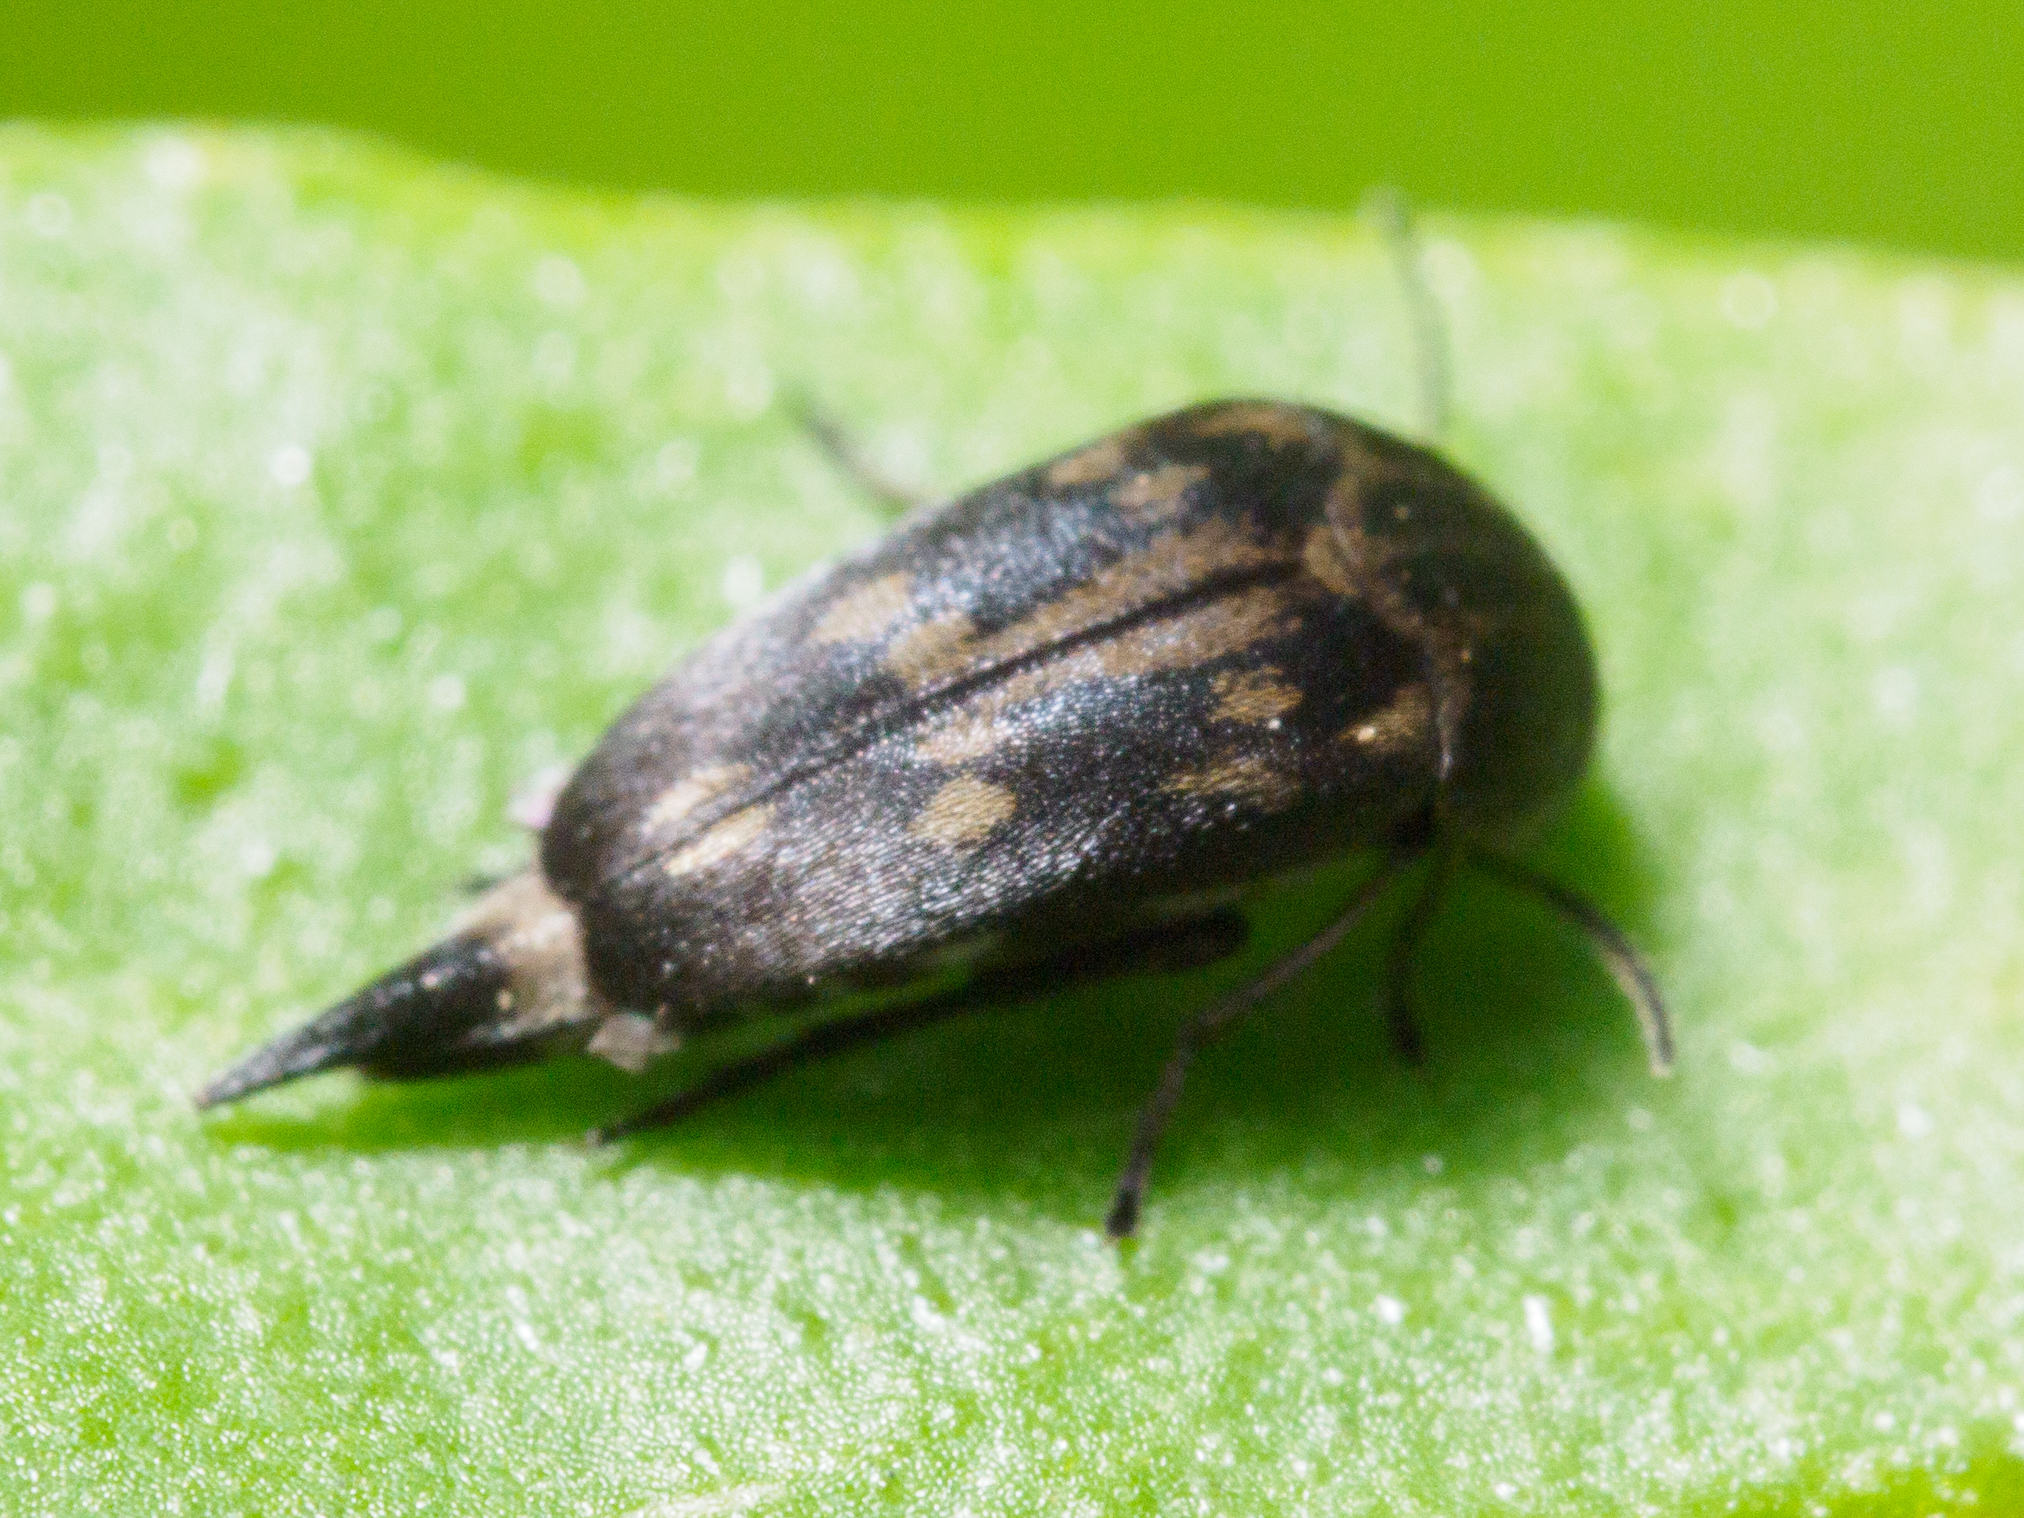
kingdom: Animalia
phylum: Arthropoda
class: Insecta
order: Coleoptera
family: Mordellidae
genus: Zeamordella
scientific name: Zeamordella monacha
